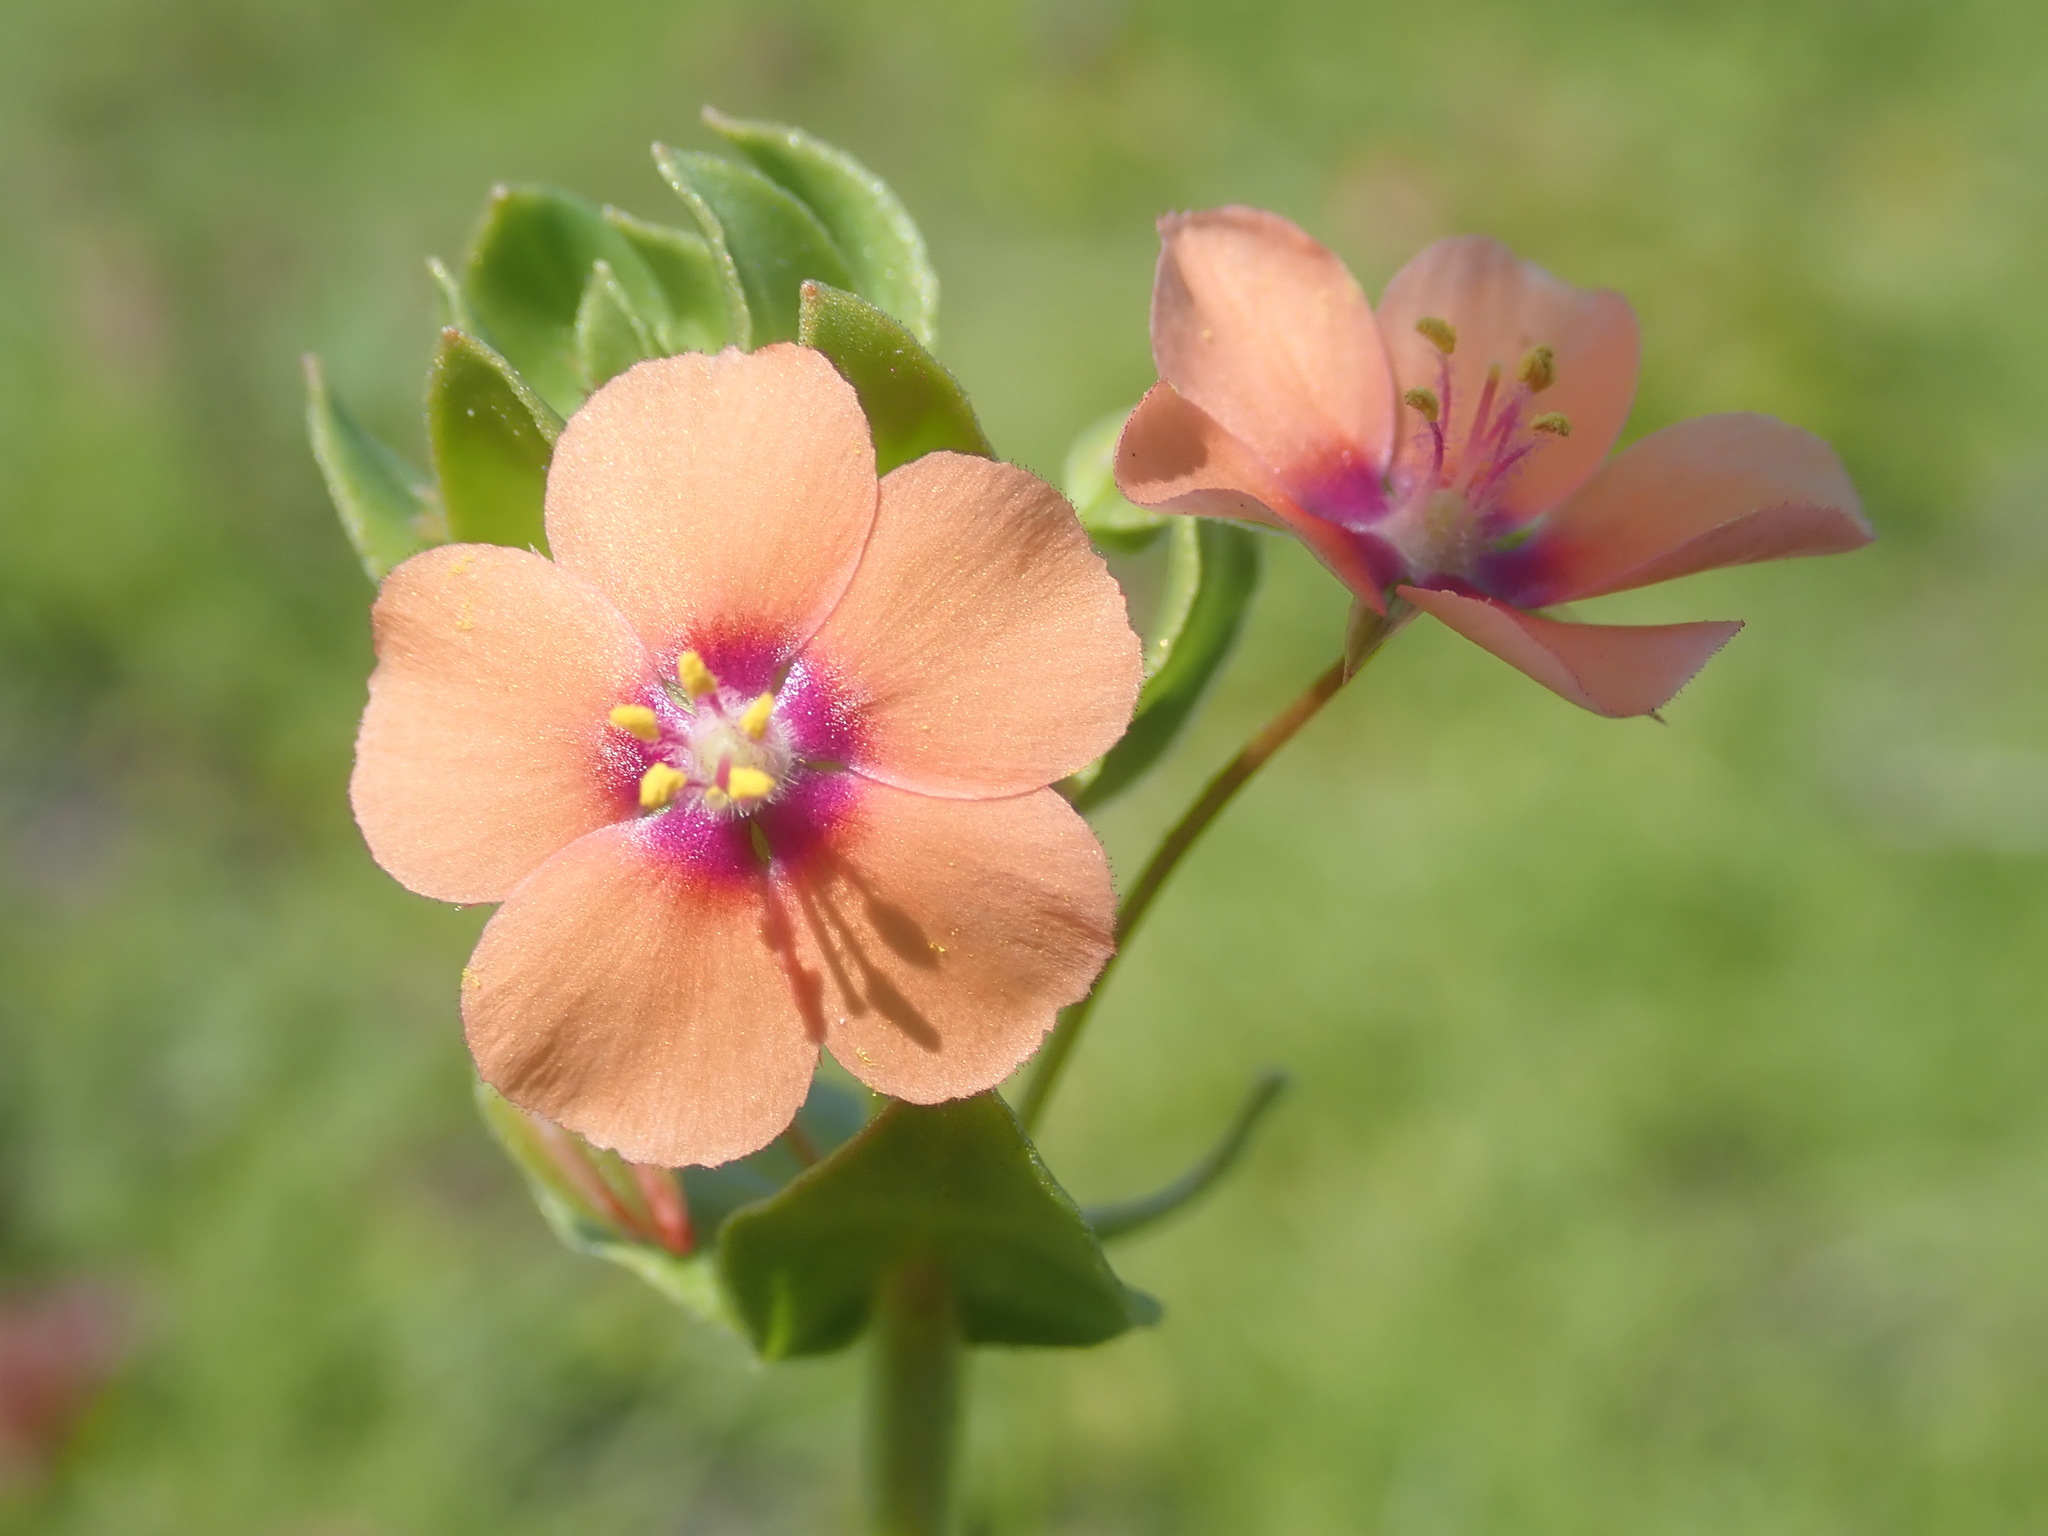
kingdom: Plantae
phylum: Tracheophyta
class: Magnoliopsida
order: Ericales
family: Primulaceae
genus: Lysimachia
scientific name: Lysimachia arvensis
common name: Scarlet pimpernel
